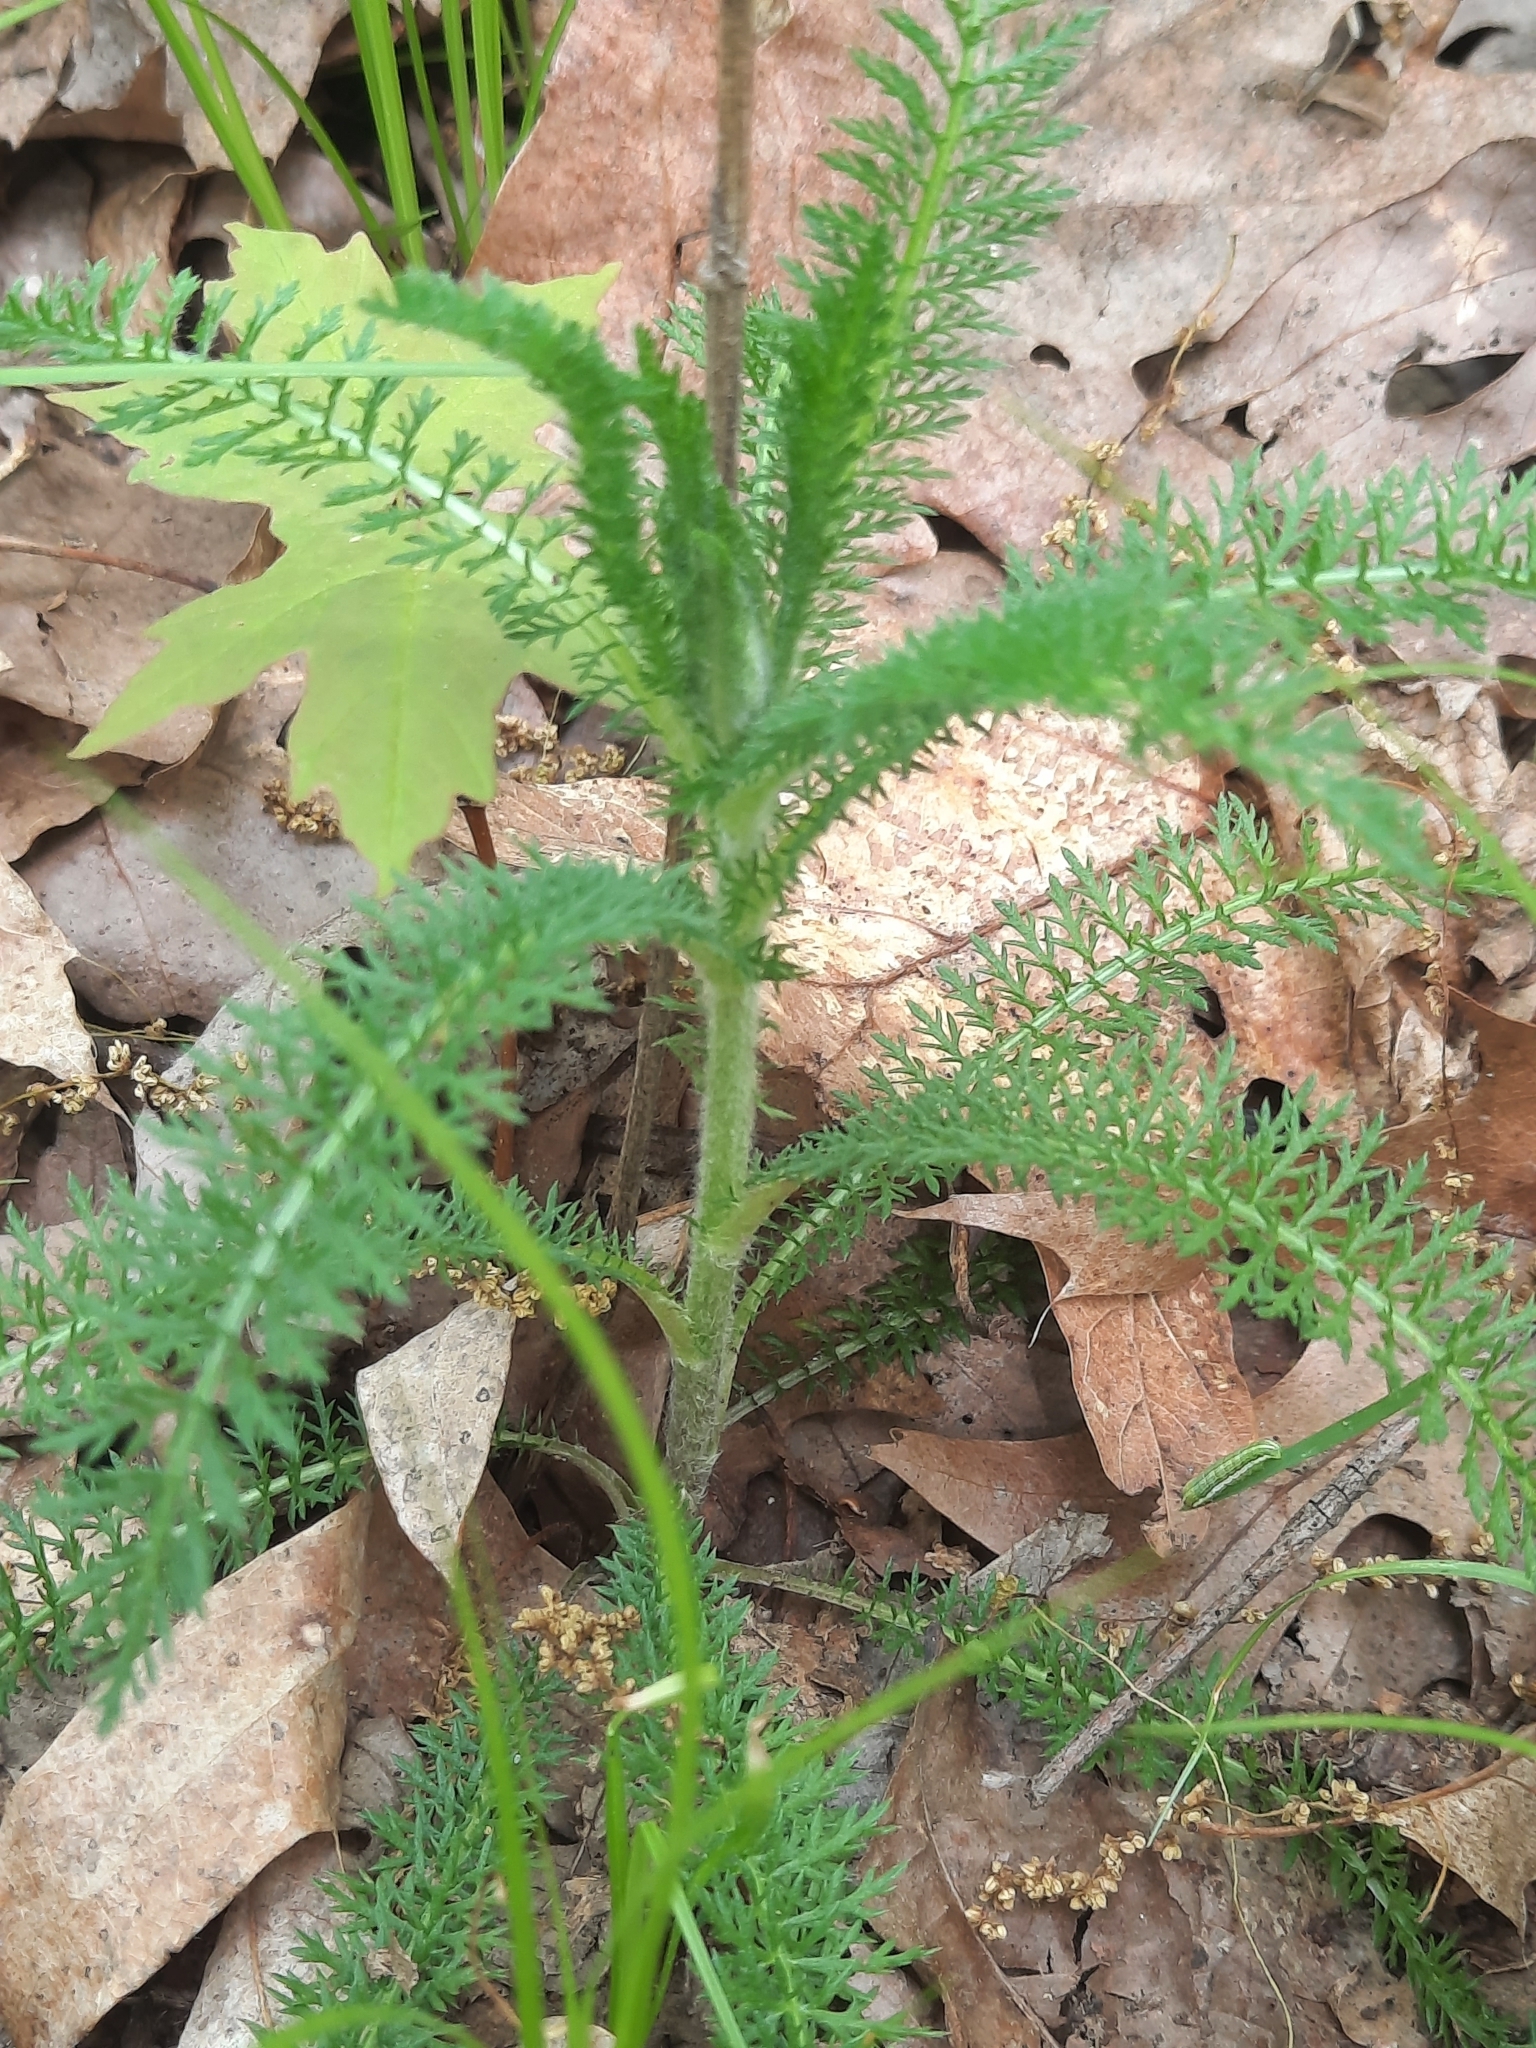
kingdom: Plantae
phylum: Tracheophyta
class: Magnoliopsida
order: Asterales
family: Asteraceae
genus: Achillea
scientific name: Achillea millefolium
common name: Yarrow
